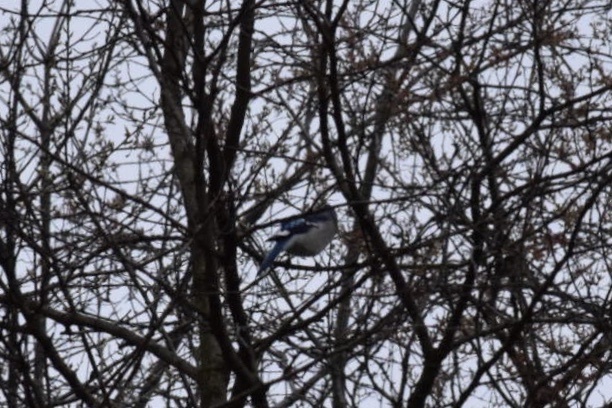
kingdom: Animalia
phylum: Chordata
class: Aves
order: Passeriformes
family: Corvidae
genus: Cyanocitta
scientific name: Cyanocitta cristata
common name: Blue jay
